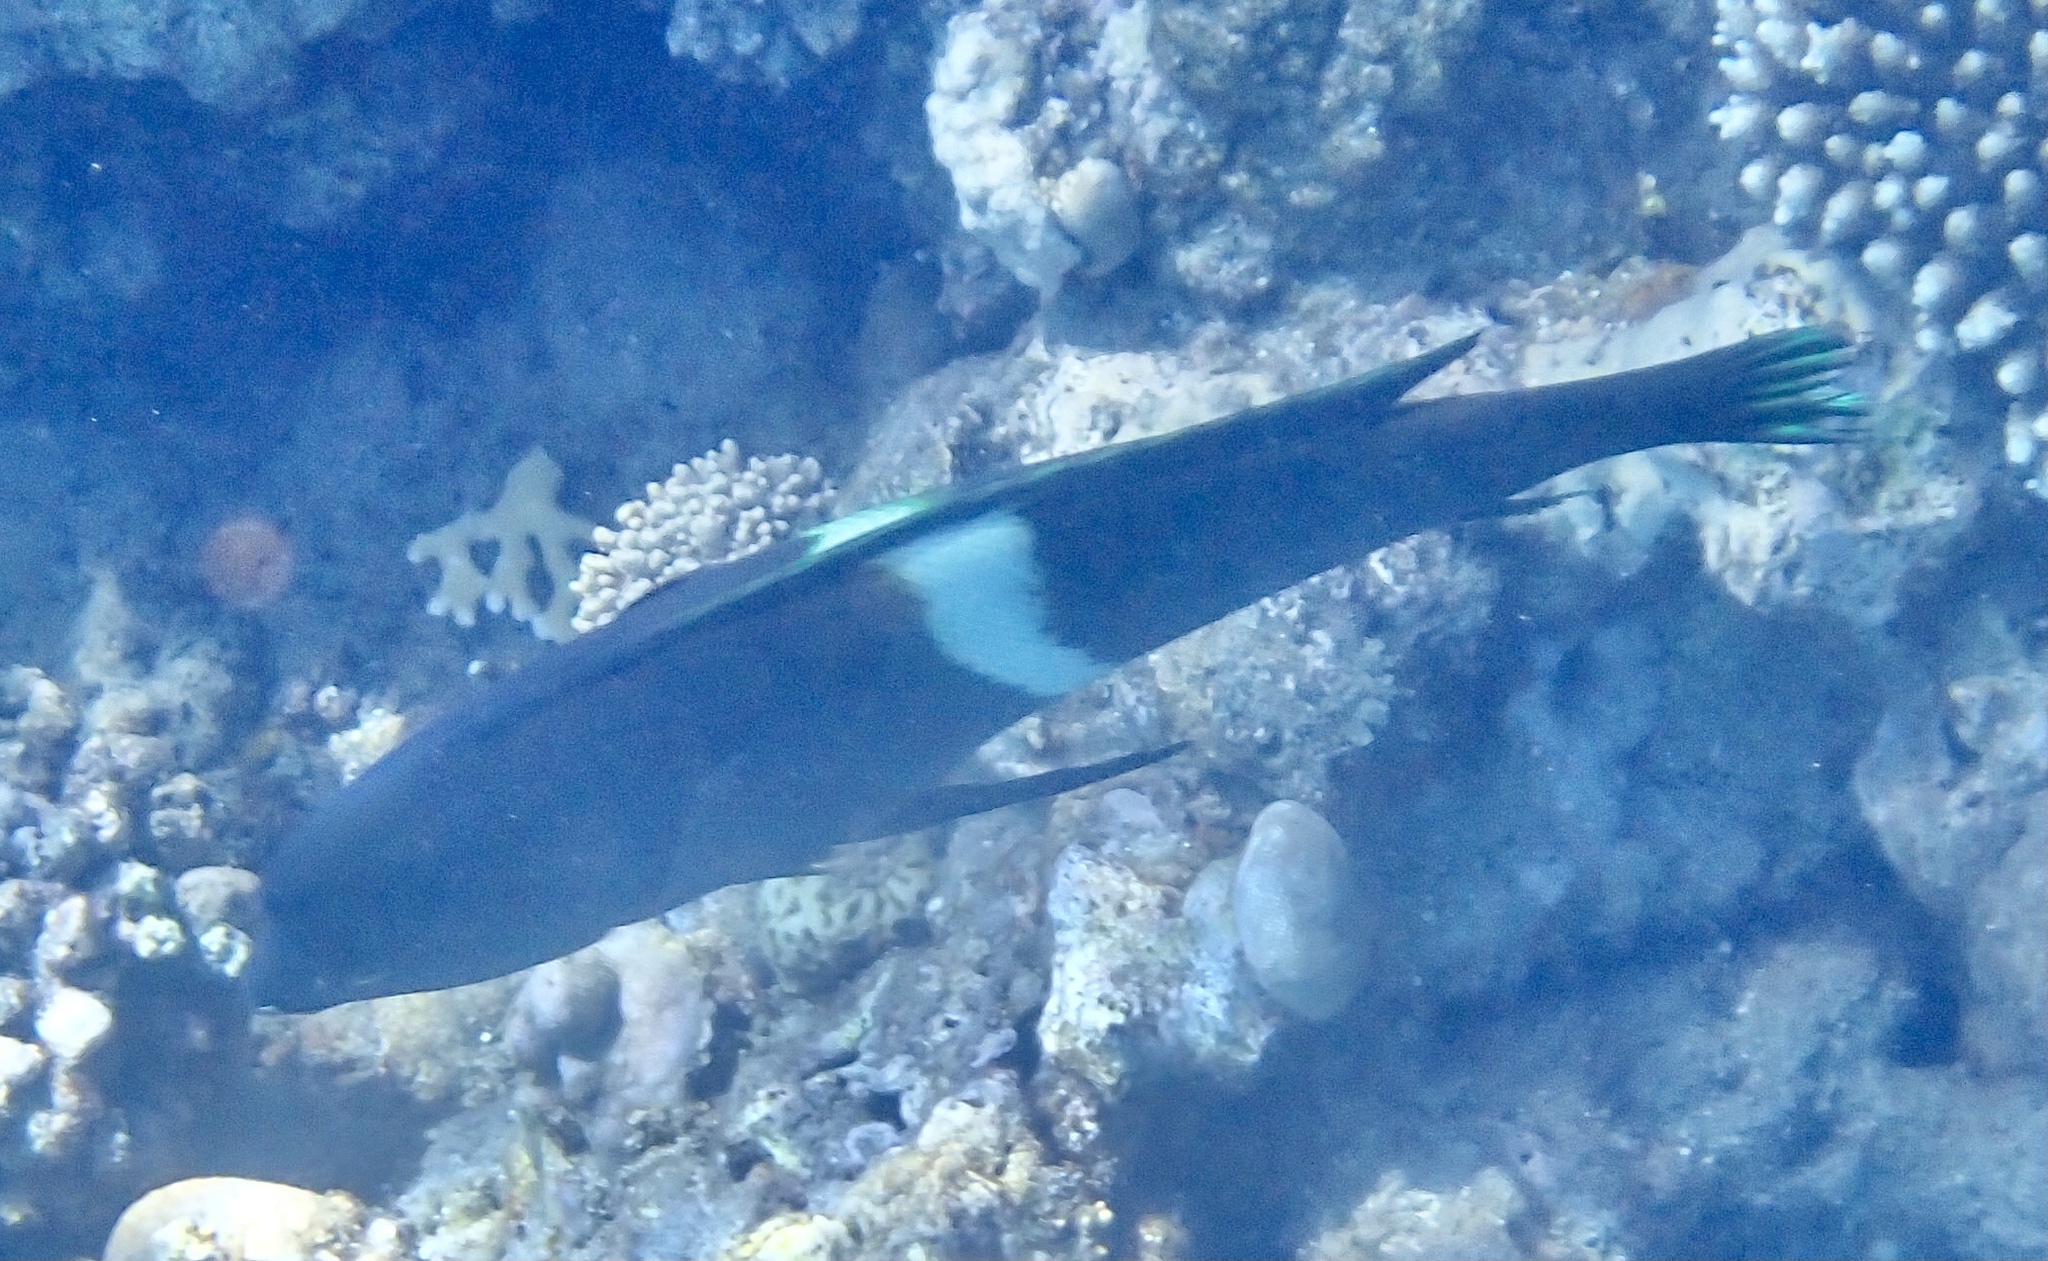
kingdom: Animalia
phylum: Chordata
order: Perciformes
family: Labridae
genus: Coris
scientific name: Coris aygula
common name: Clown coris
